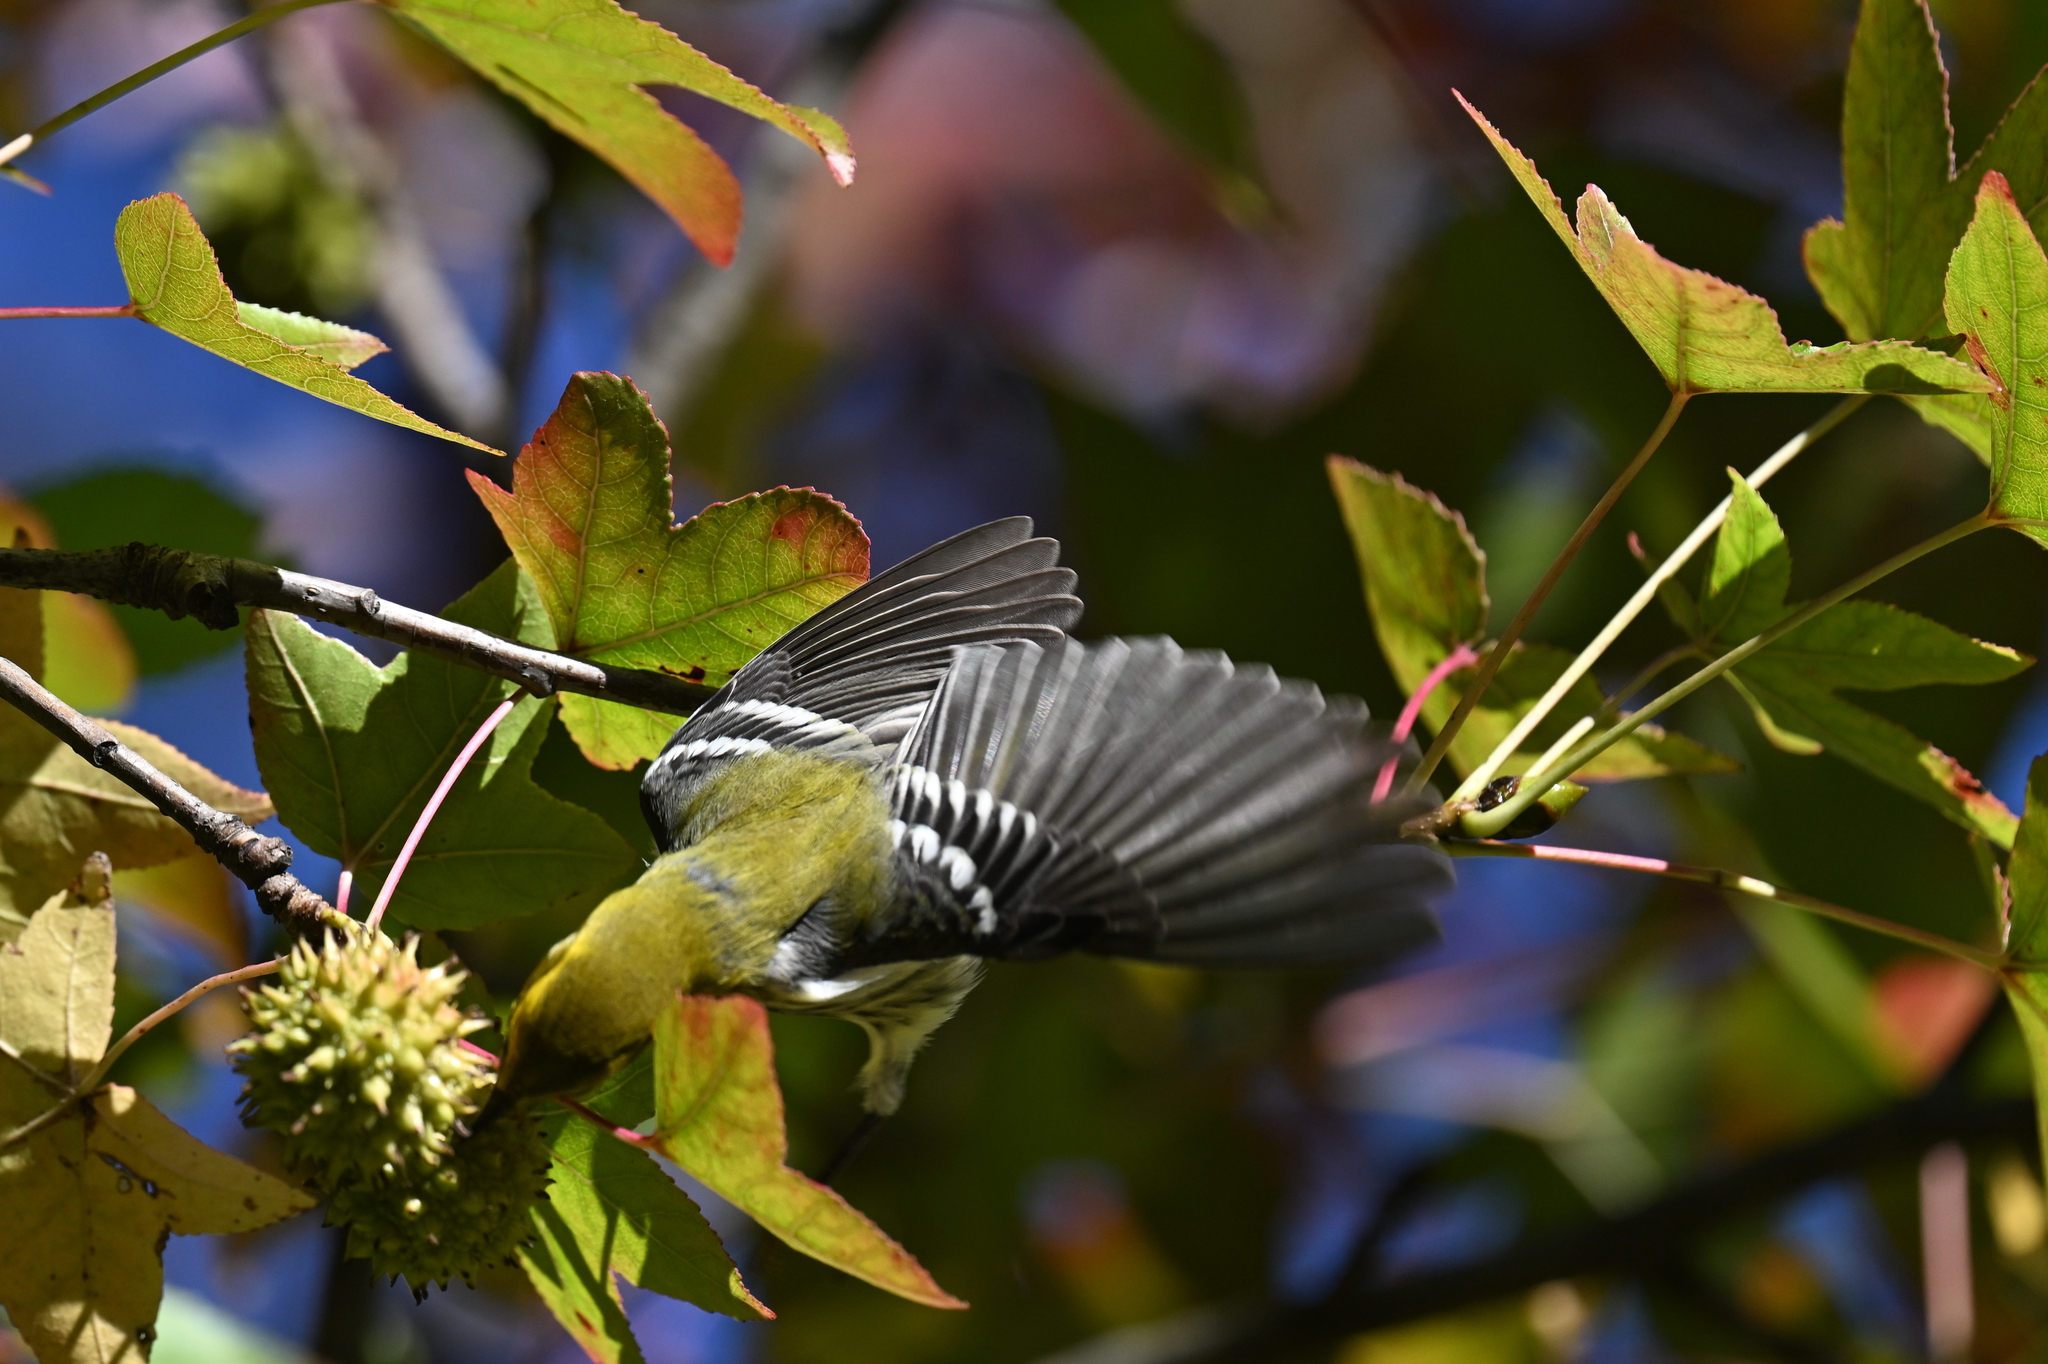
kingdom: Animalia
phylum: Chordata
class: Aves
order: Passeriformes
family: Parulidae
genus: Setophaga
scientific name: Setophaga virens
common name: Black-throated green warbler
